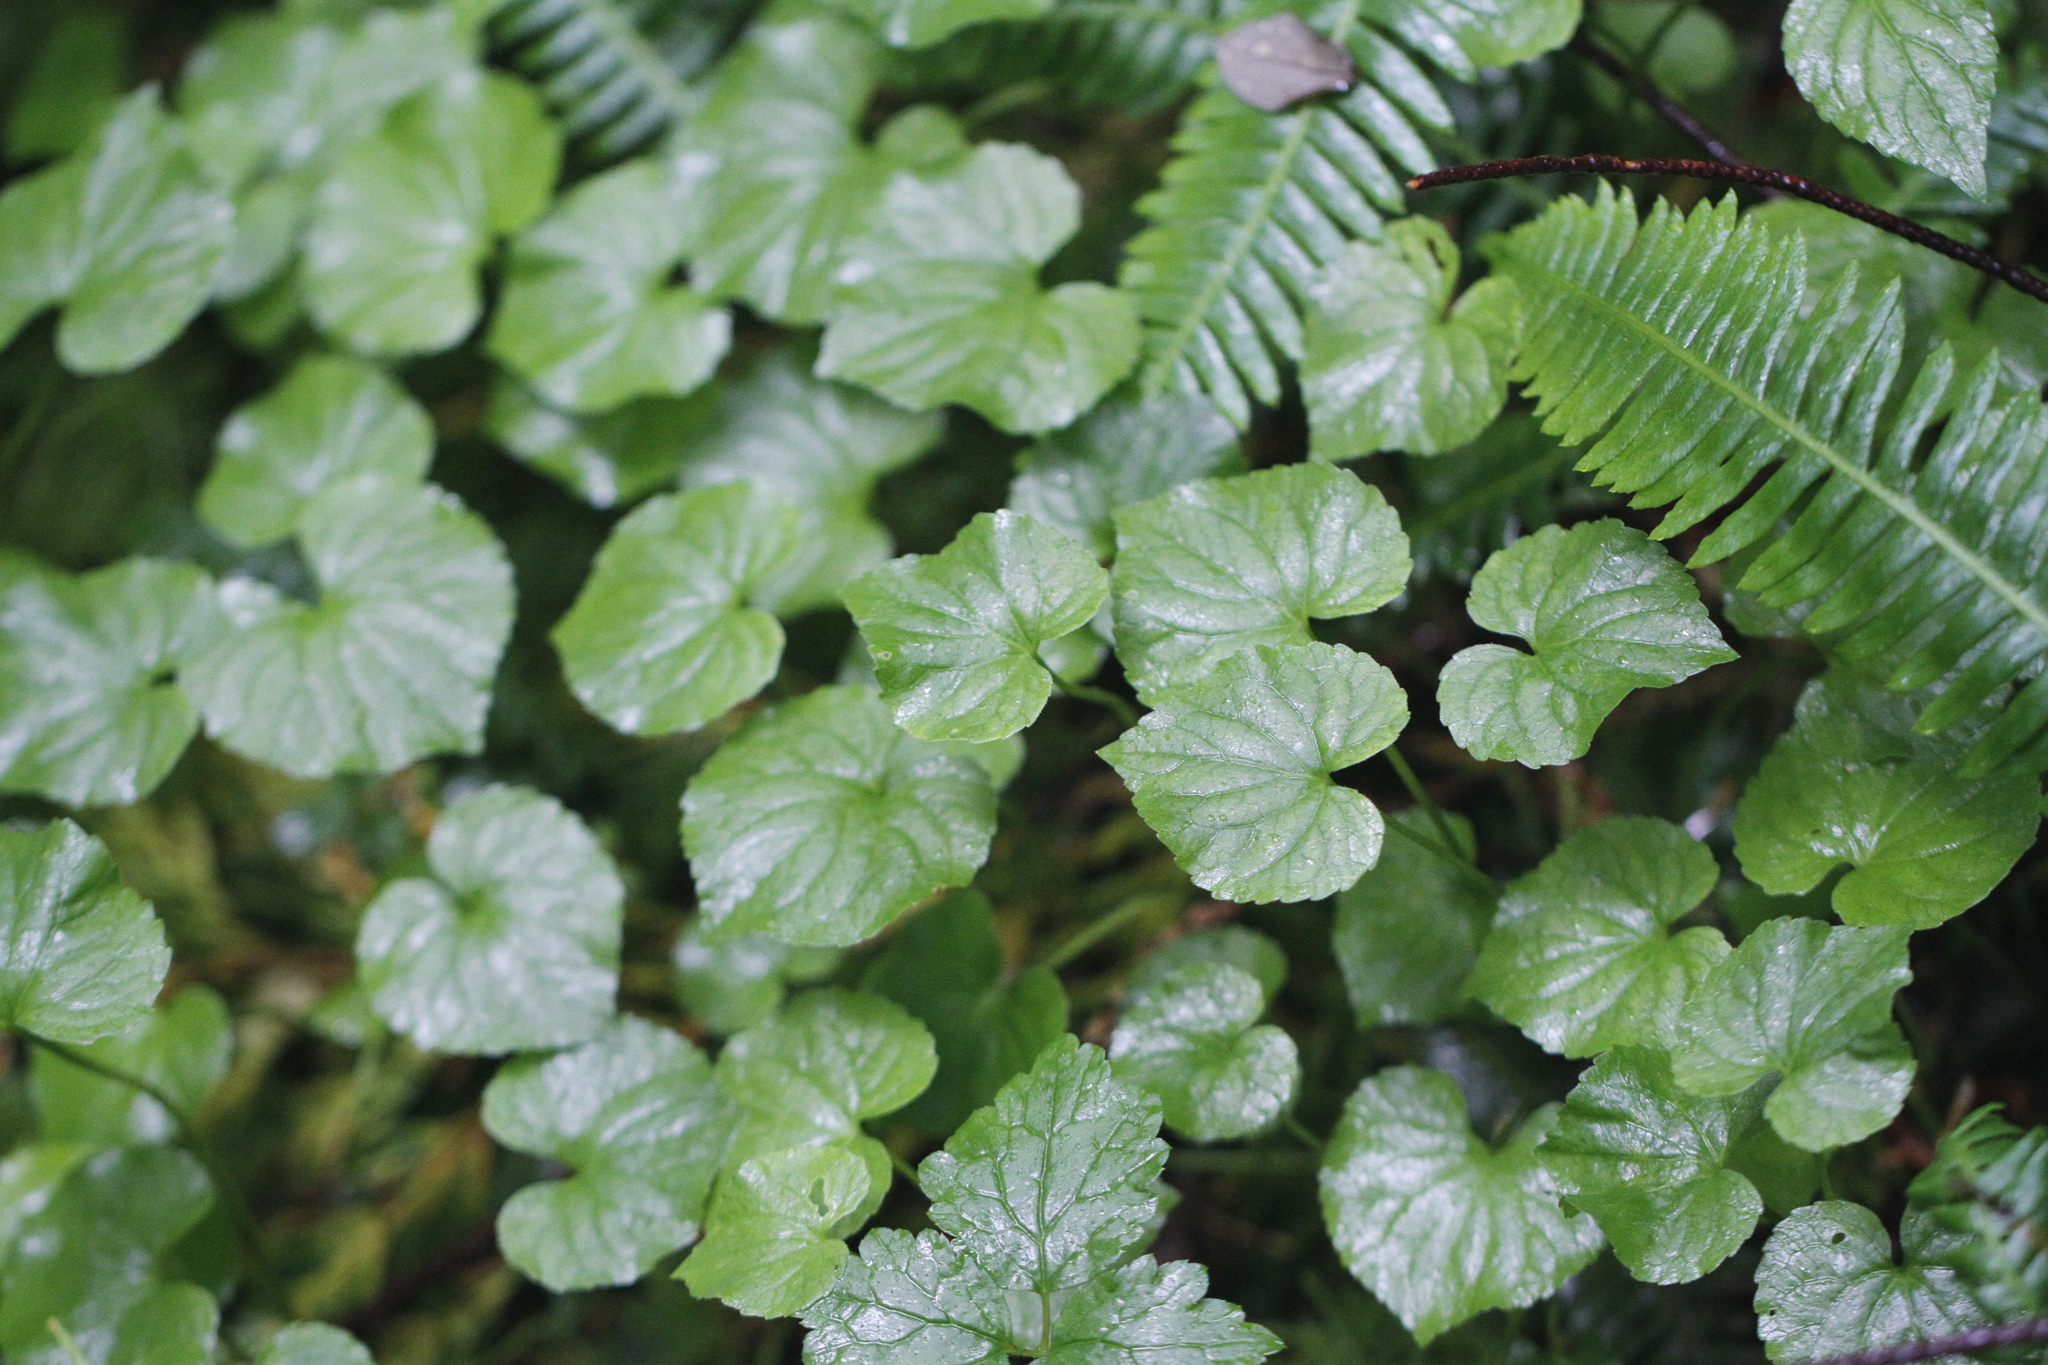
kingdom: Plantae
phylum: Tracheophyta
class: Magnoliopsida
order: Malpighiales
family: Violaceae
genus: Viola
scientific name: Viola glabella
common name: Stream violet
